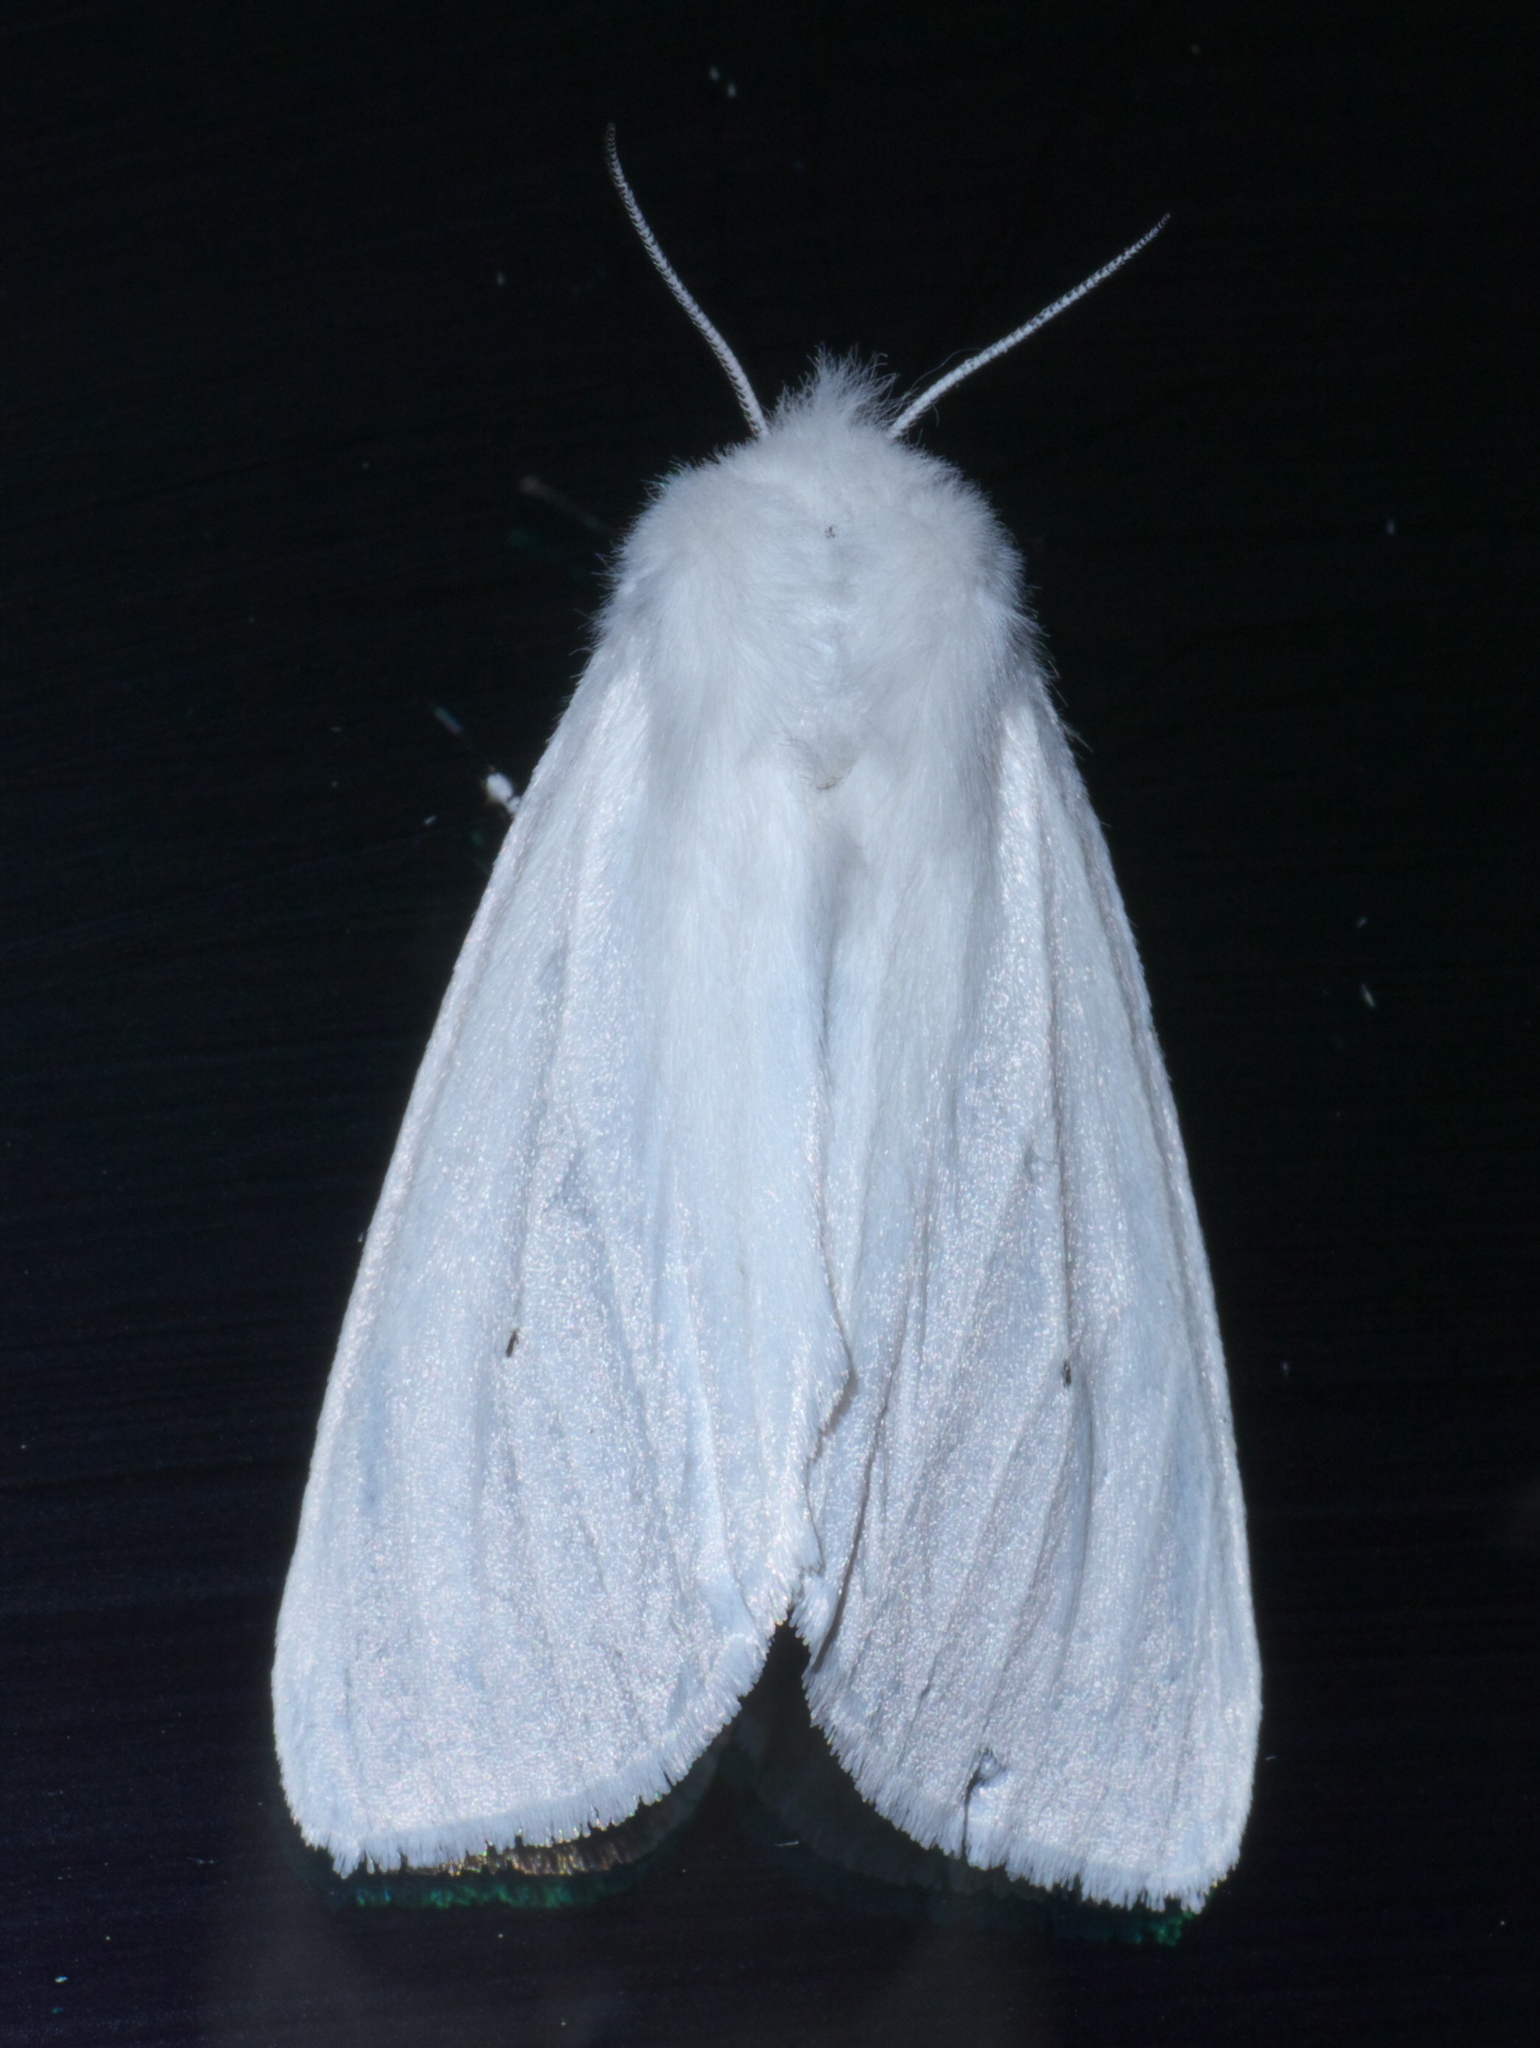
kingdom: Animalia
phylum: Arthropoda
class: Insecta
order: Lepidoptera
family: Erebidae
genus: Spilosoma
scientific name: Spilosoma virginica
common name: Virginia tiger moth
